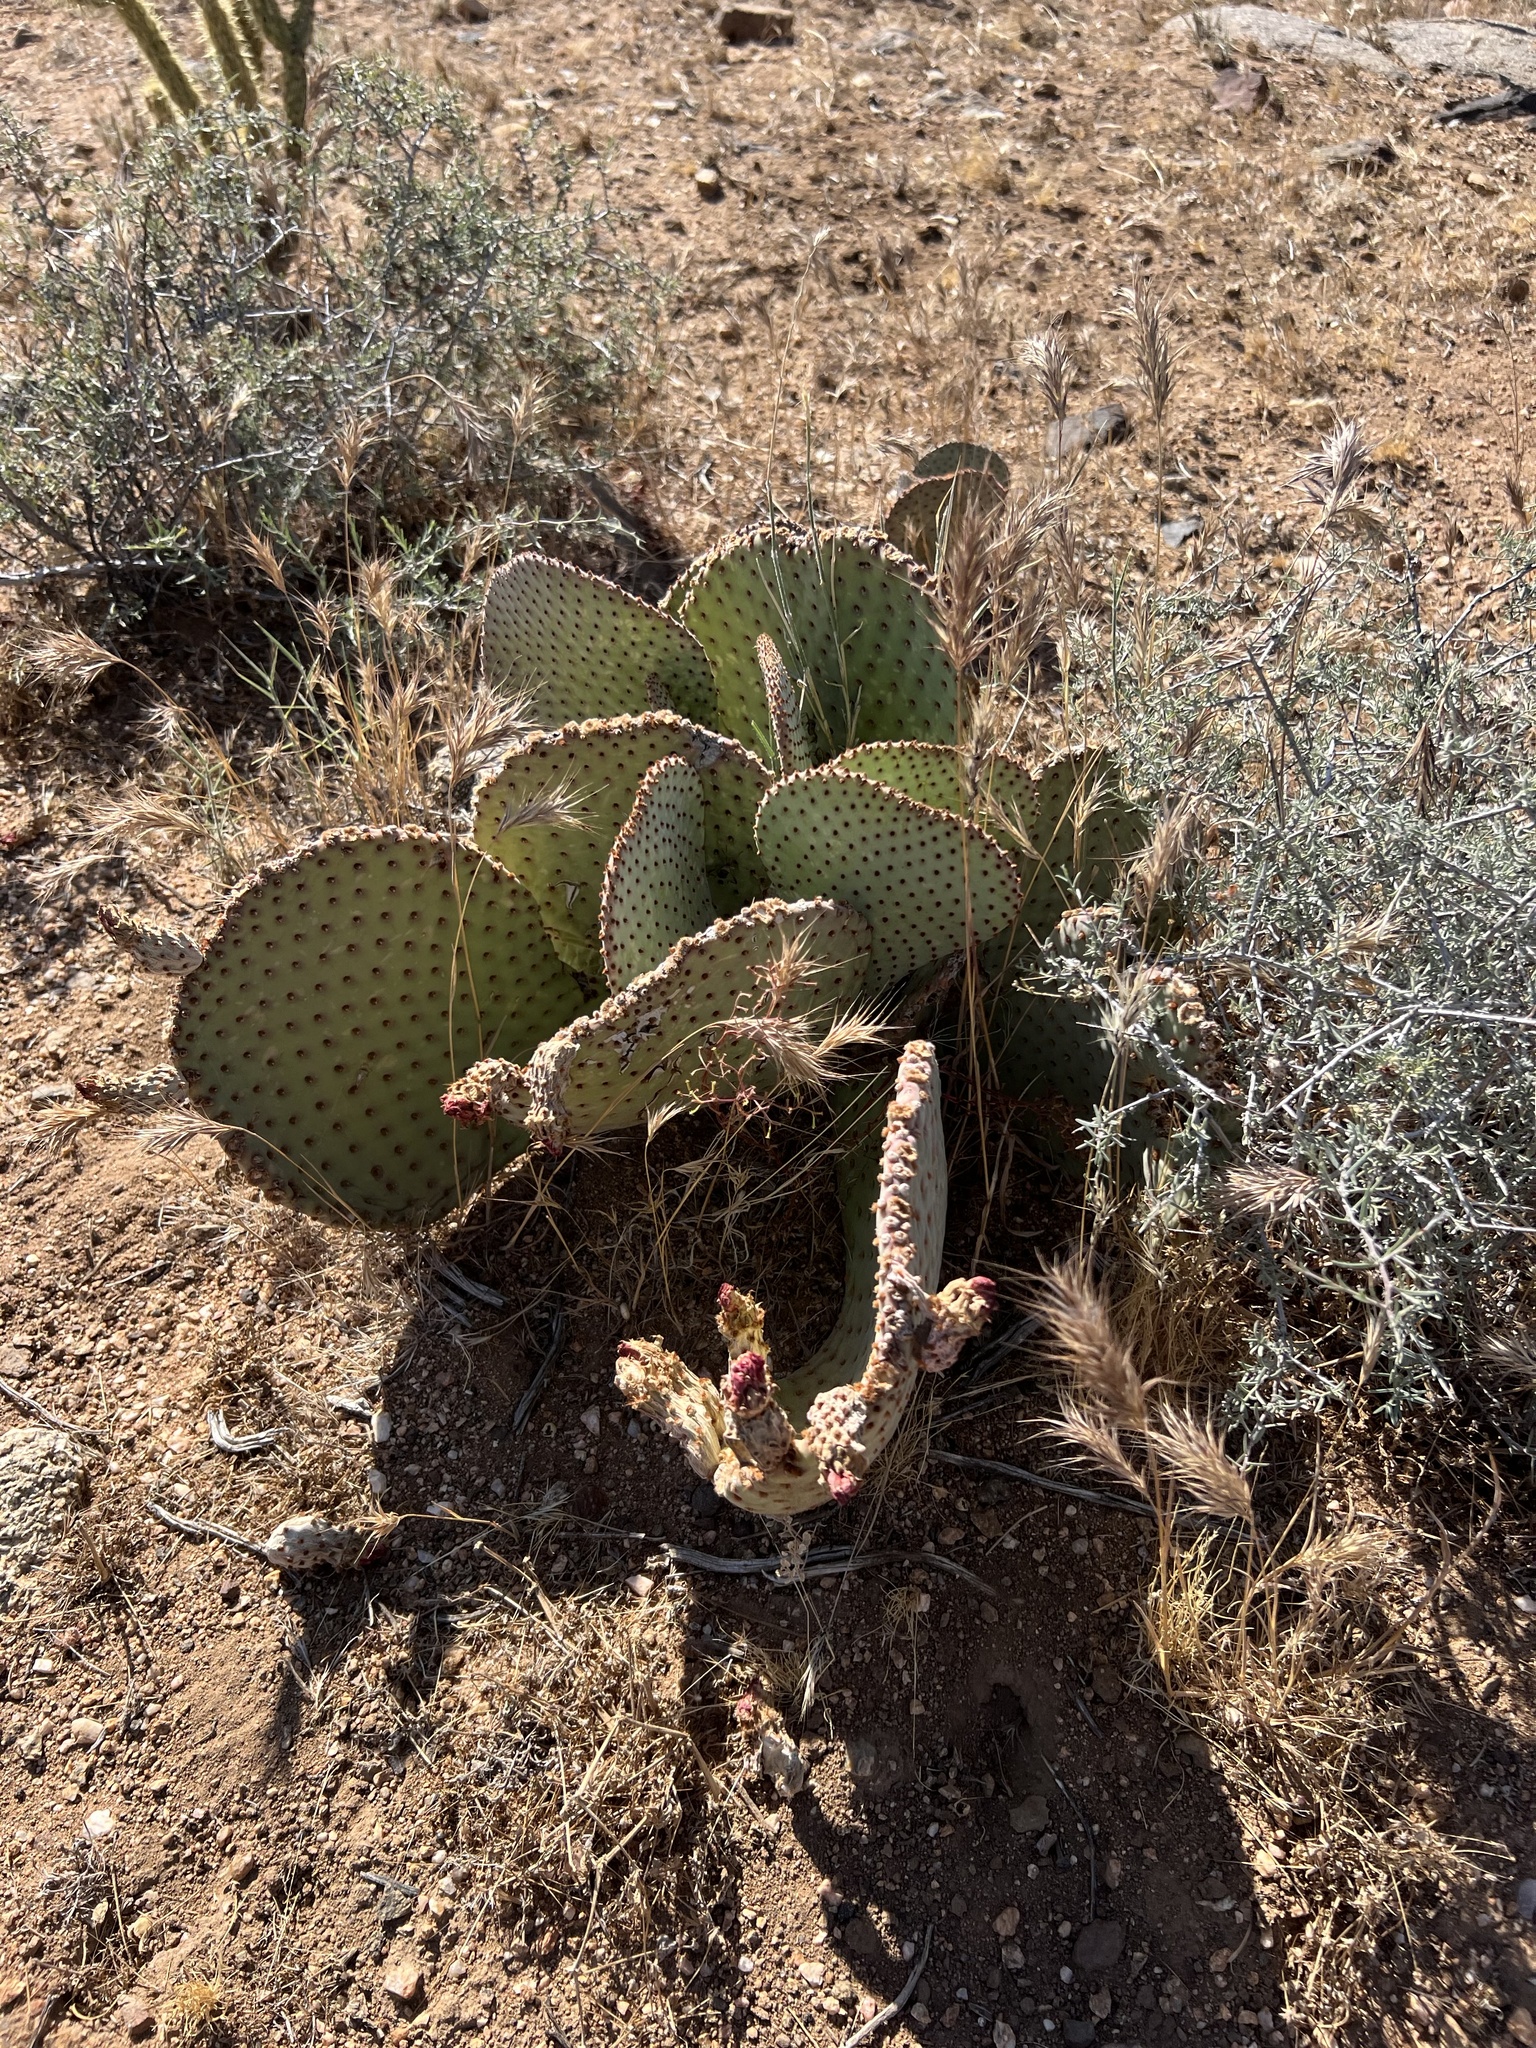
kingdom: Plantae
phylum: Tracheophyta
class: Magnoliopsida
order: Caryophyllales
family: Cactaceae
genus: Opuntia
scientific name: Opuntia basilaris
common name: Beavertail prickly-pear
